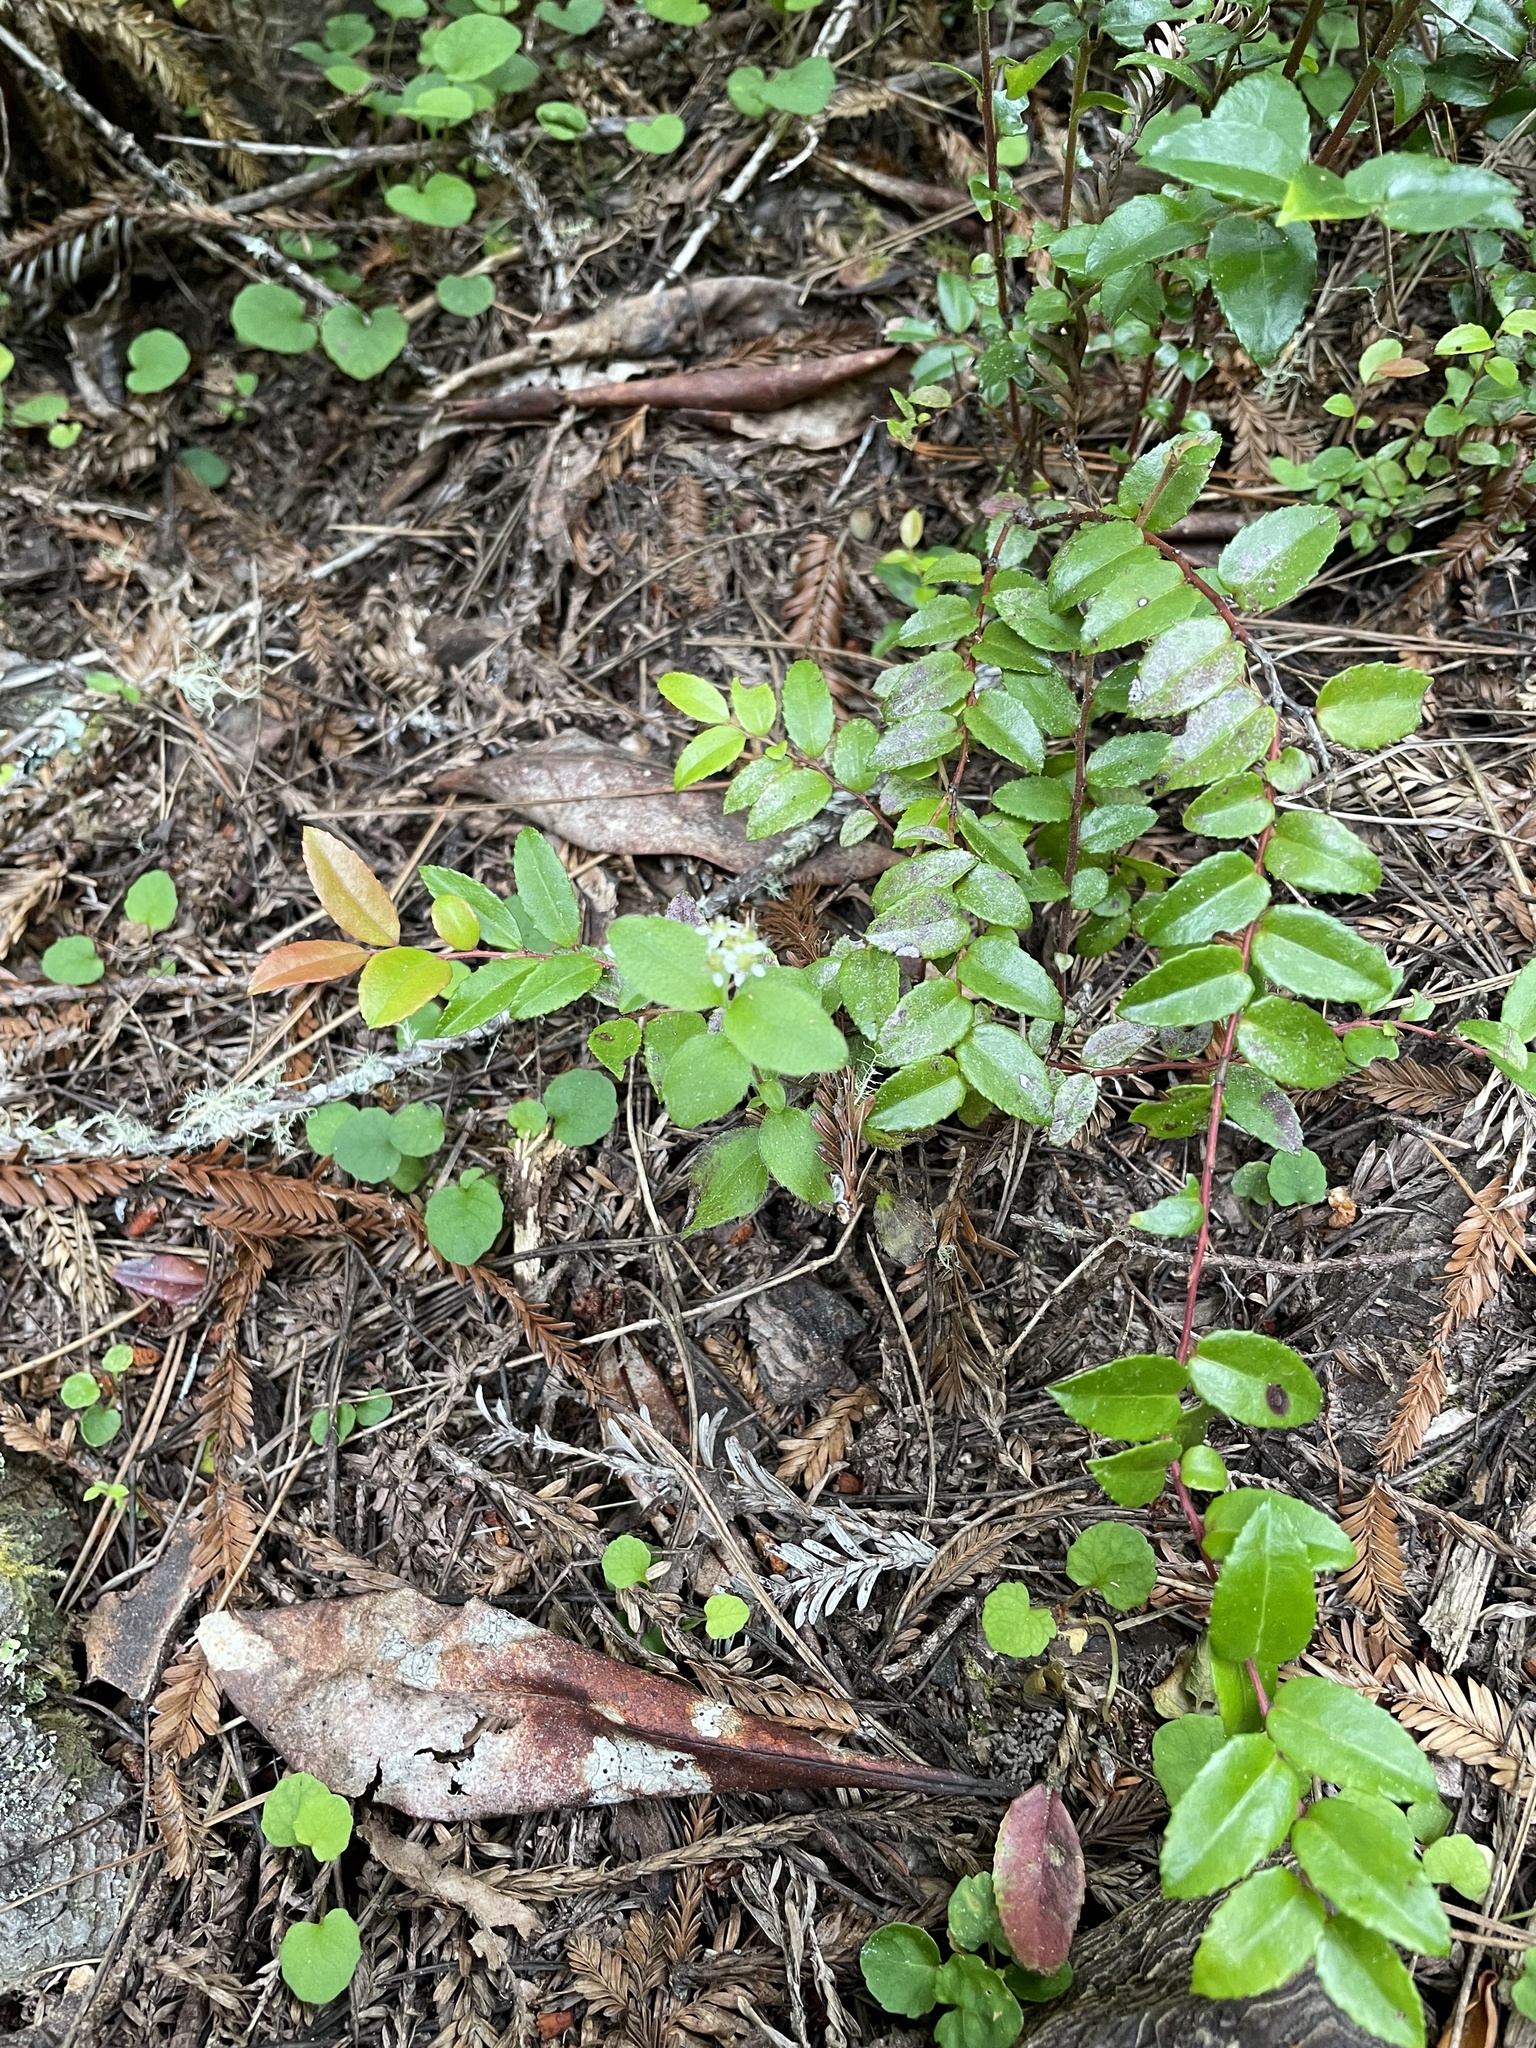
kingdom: Plantae
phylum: Tracheophyta
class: Magnoliopsida
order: Cornales
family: Hydrangeaceae
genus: Whipplea
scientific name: Whipplea modesta
